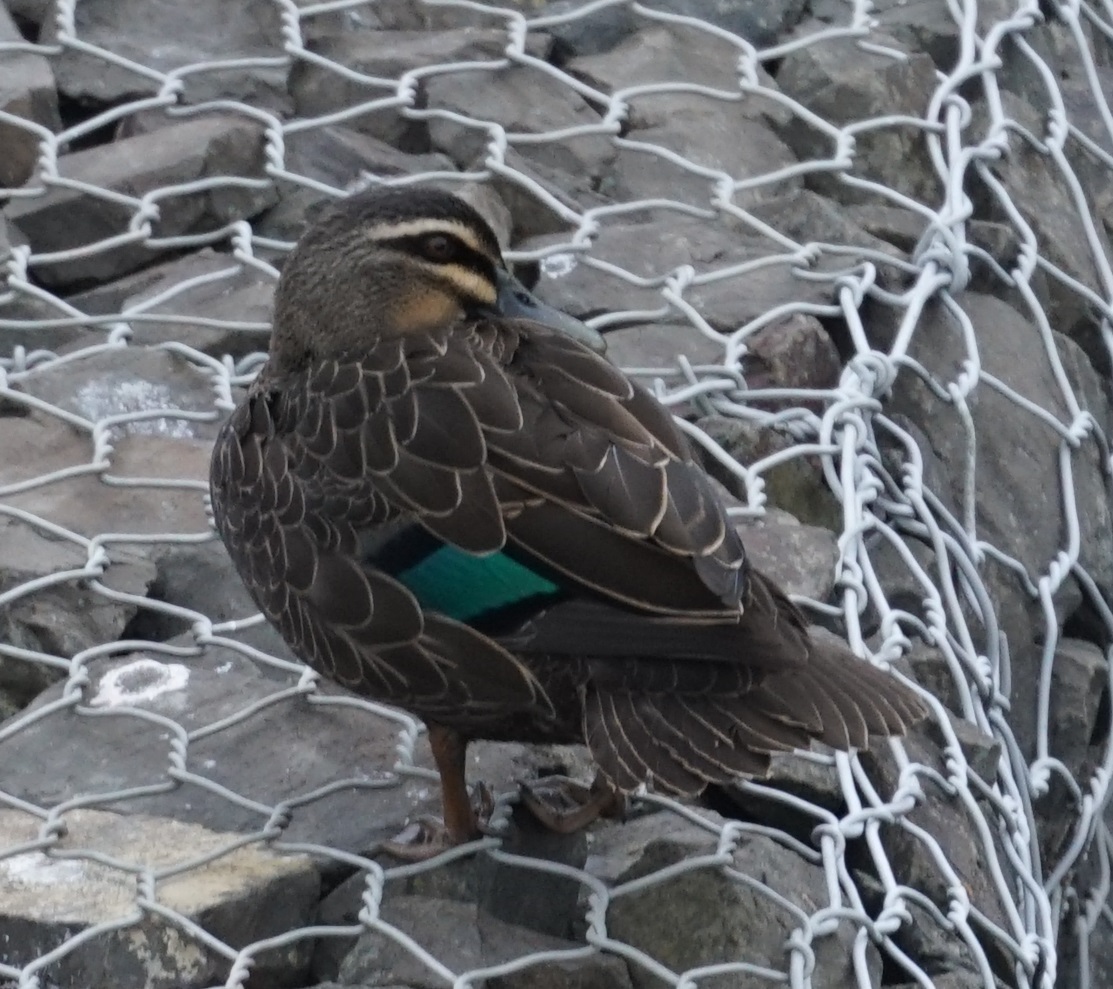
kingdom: Animalia
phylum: Chordata
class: Aves
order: Anseriformes
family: Anatidae
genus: Anas
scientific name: Anas
